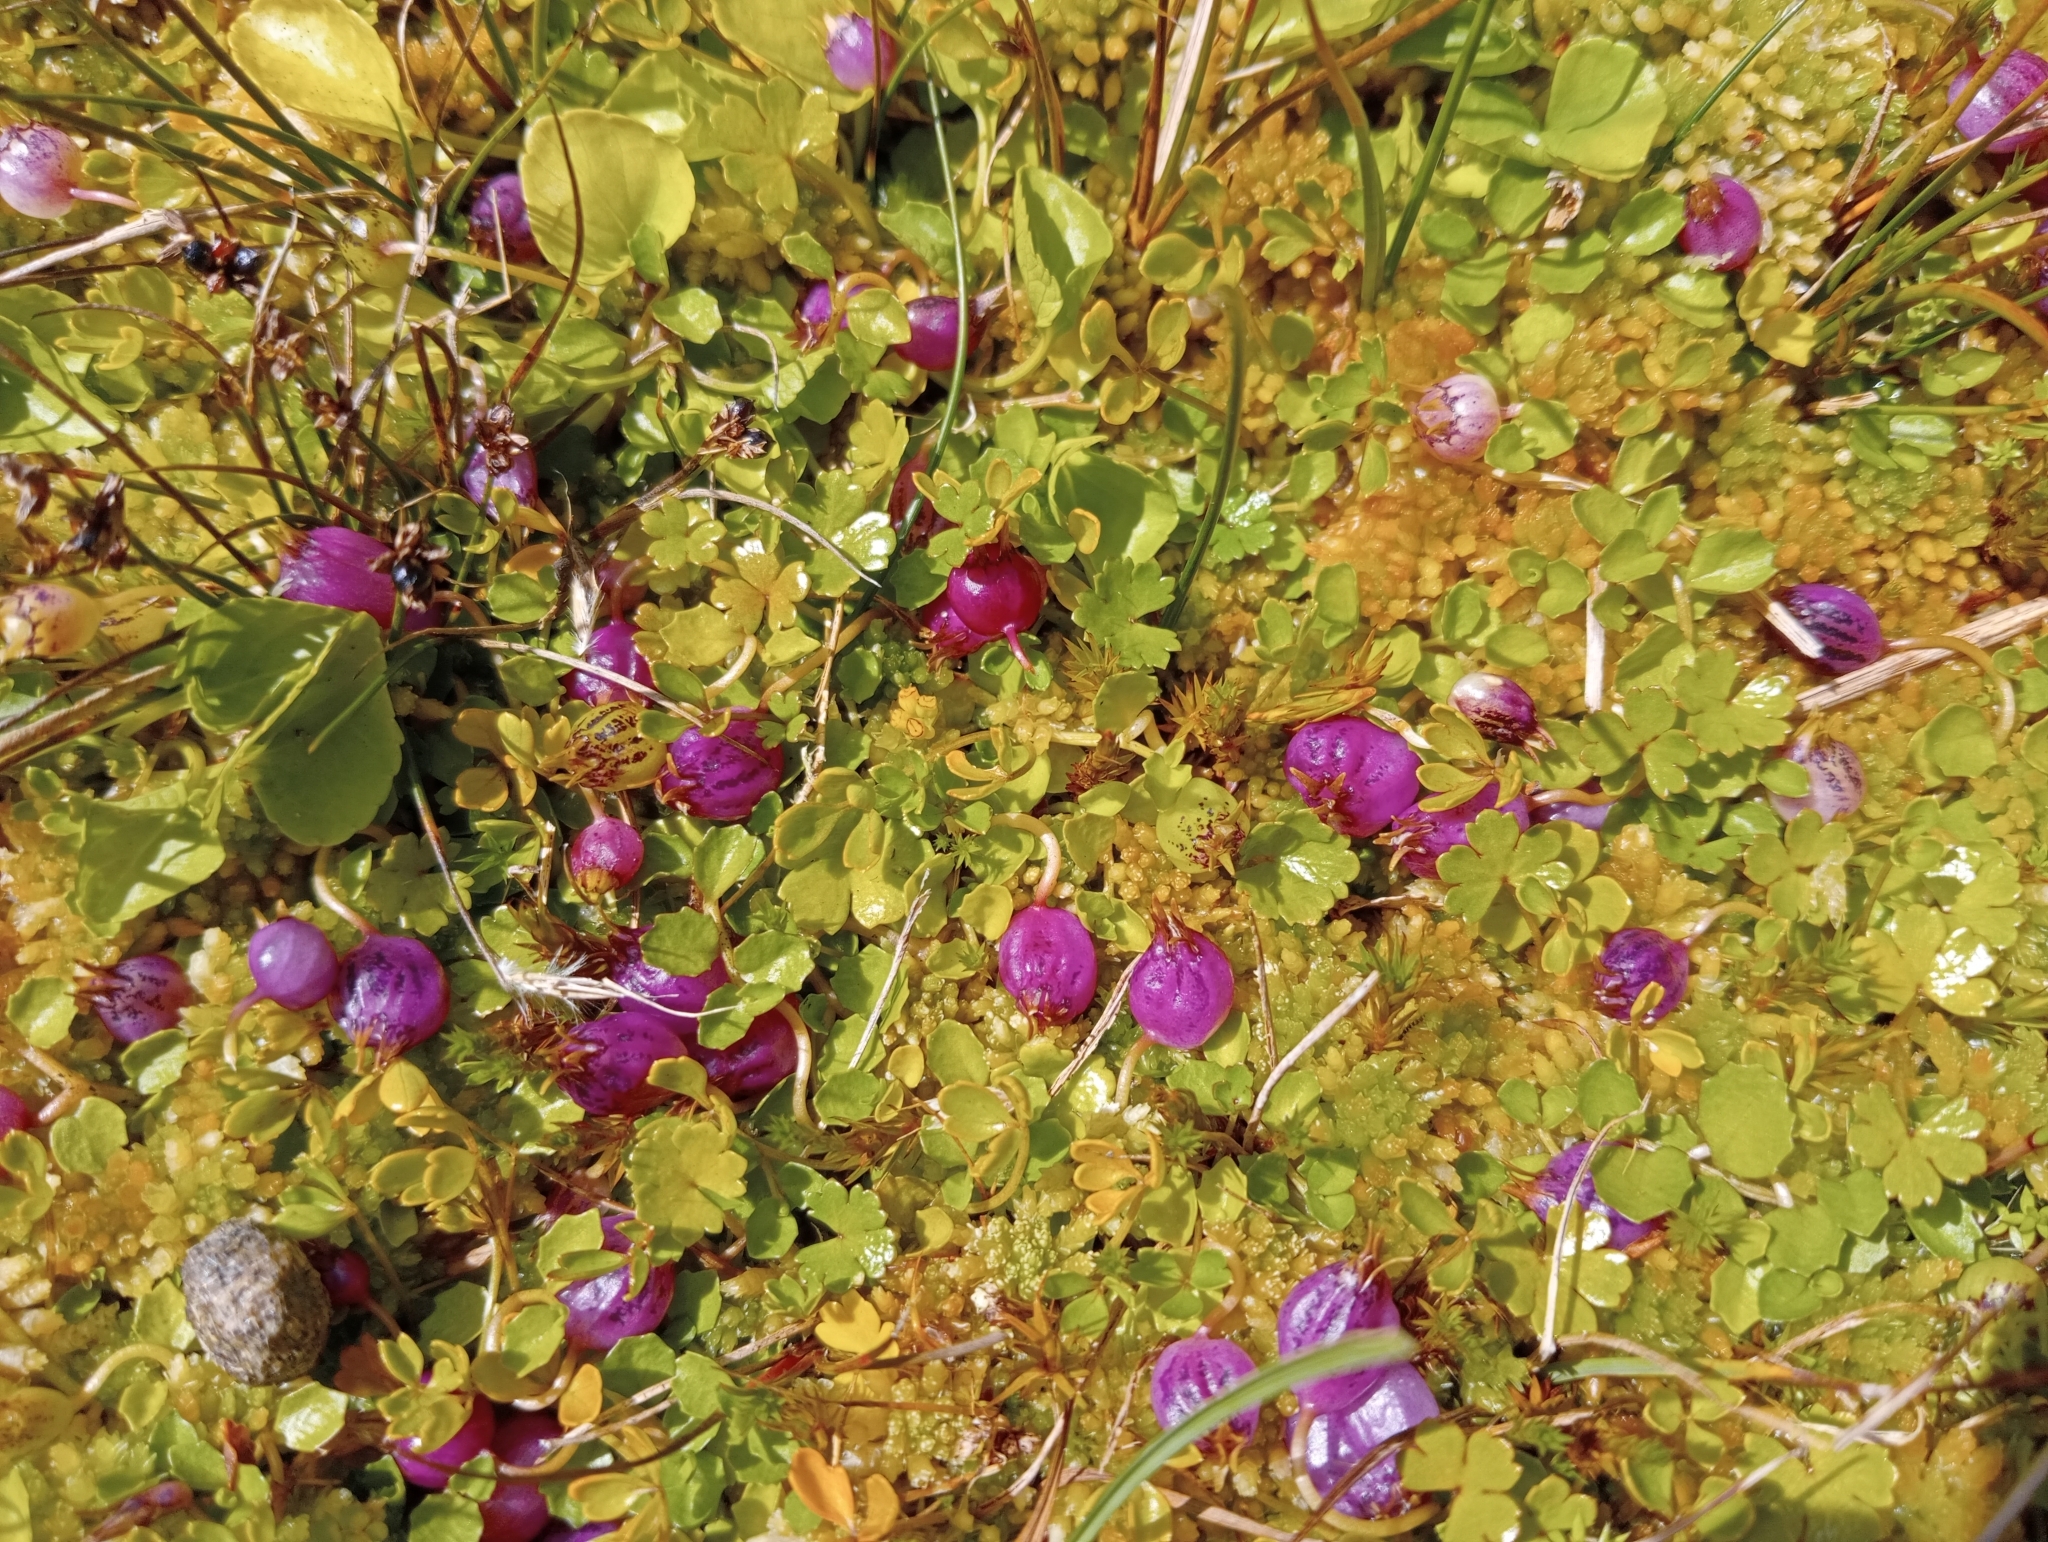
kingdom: Plantae
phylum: Tracheophyta
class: Magnoliopsida
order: Asterales
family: Campanulaceae
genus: Lobelia
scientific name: Lobelia angulata
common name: Lawn lobelia
